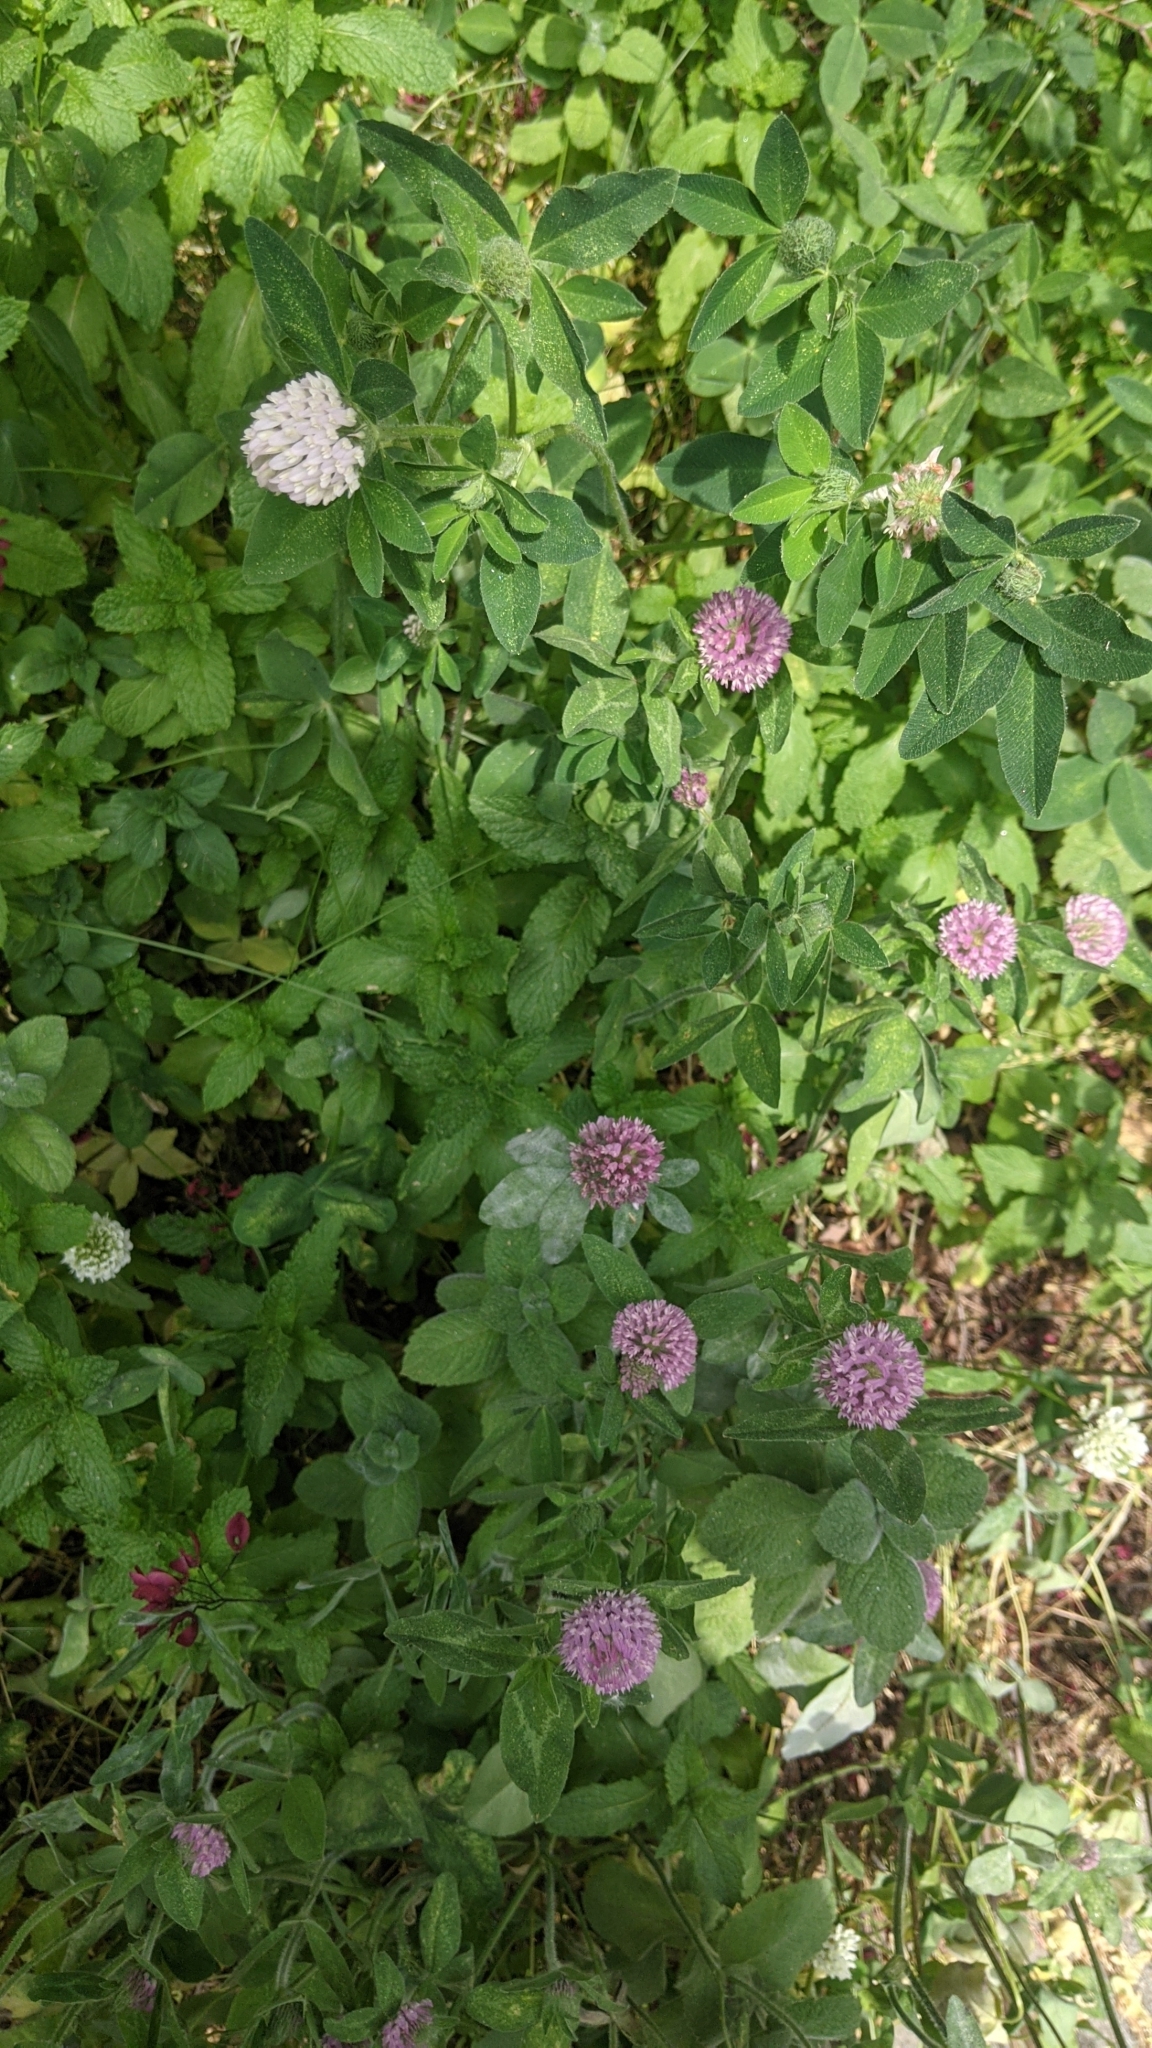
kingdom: Plantae
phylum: Tracheophyta
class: Magnoliopsida
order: Fabales
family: Fabaceae
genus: Trifolium
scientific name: Trifolium pratense
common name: Red clover
